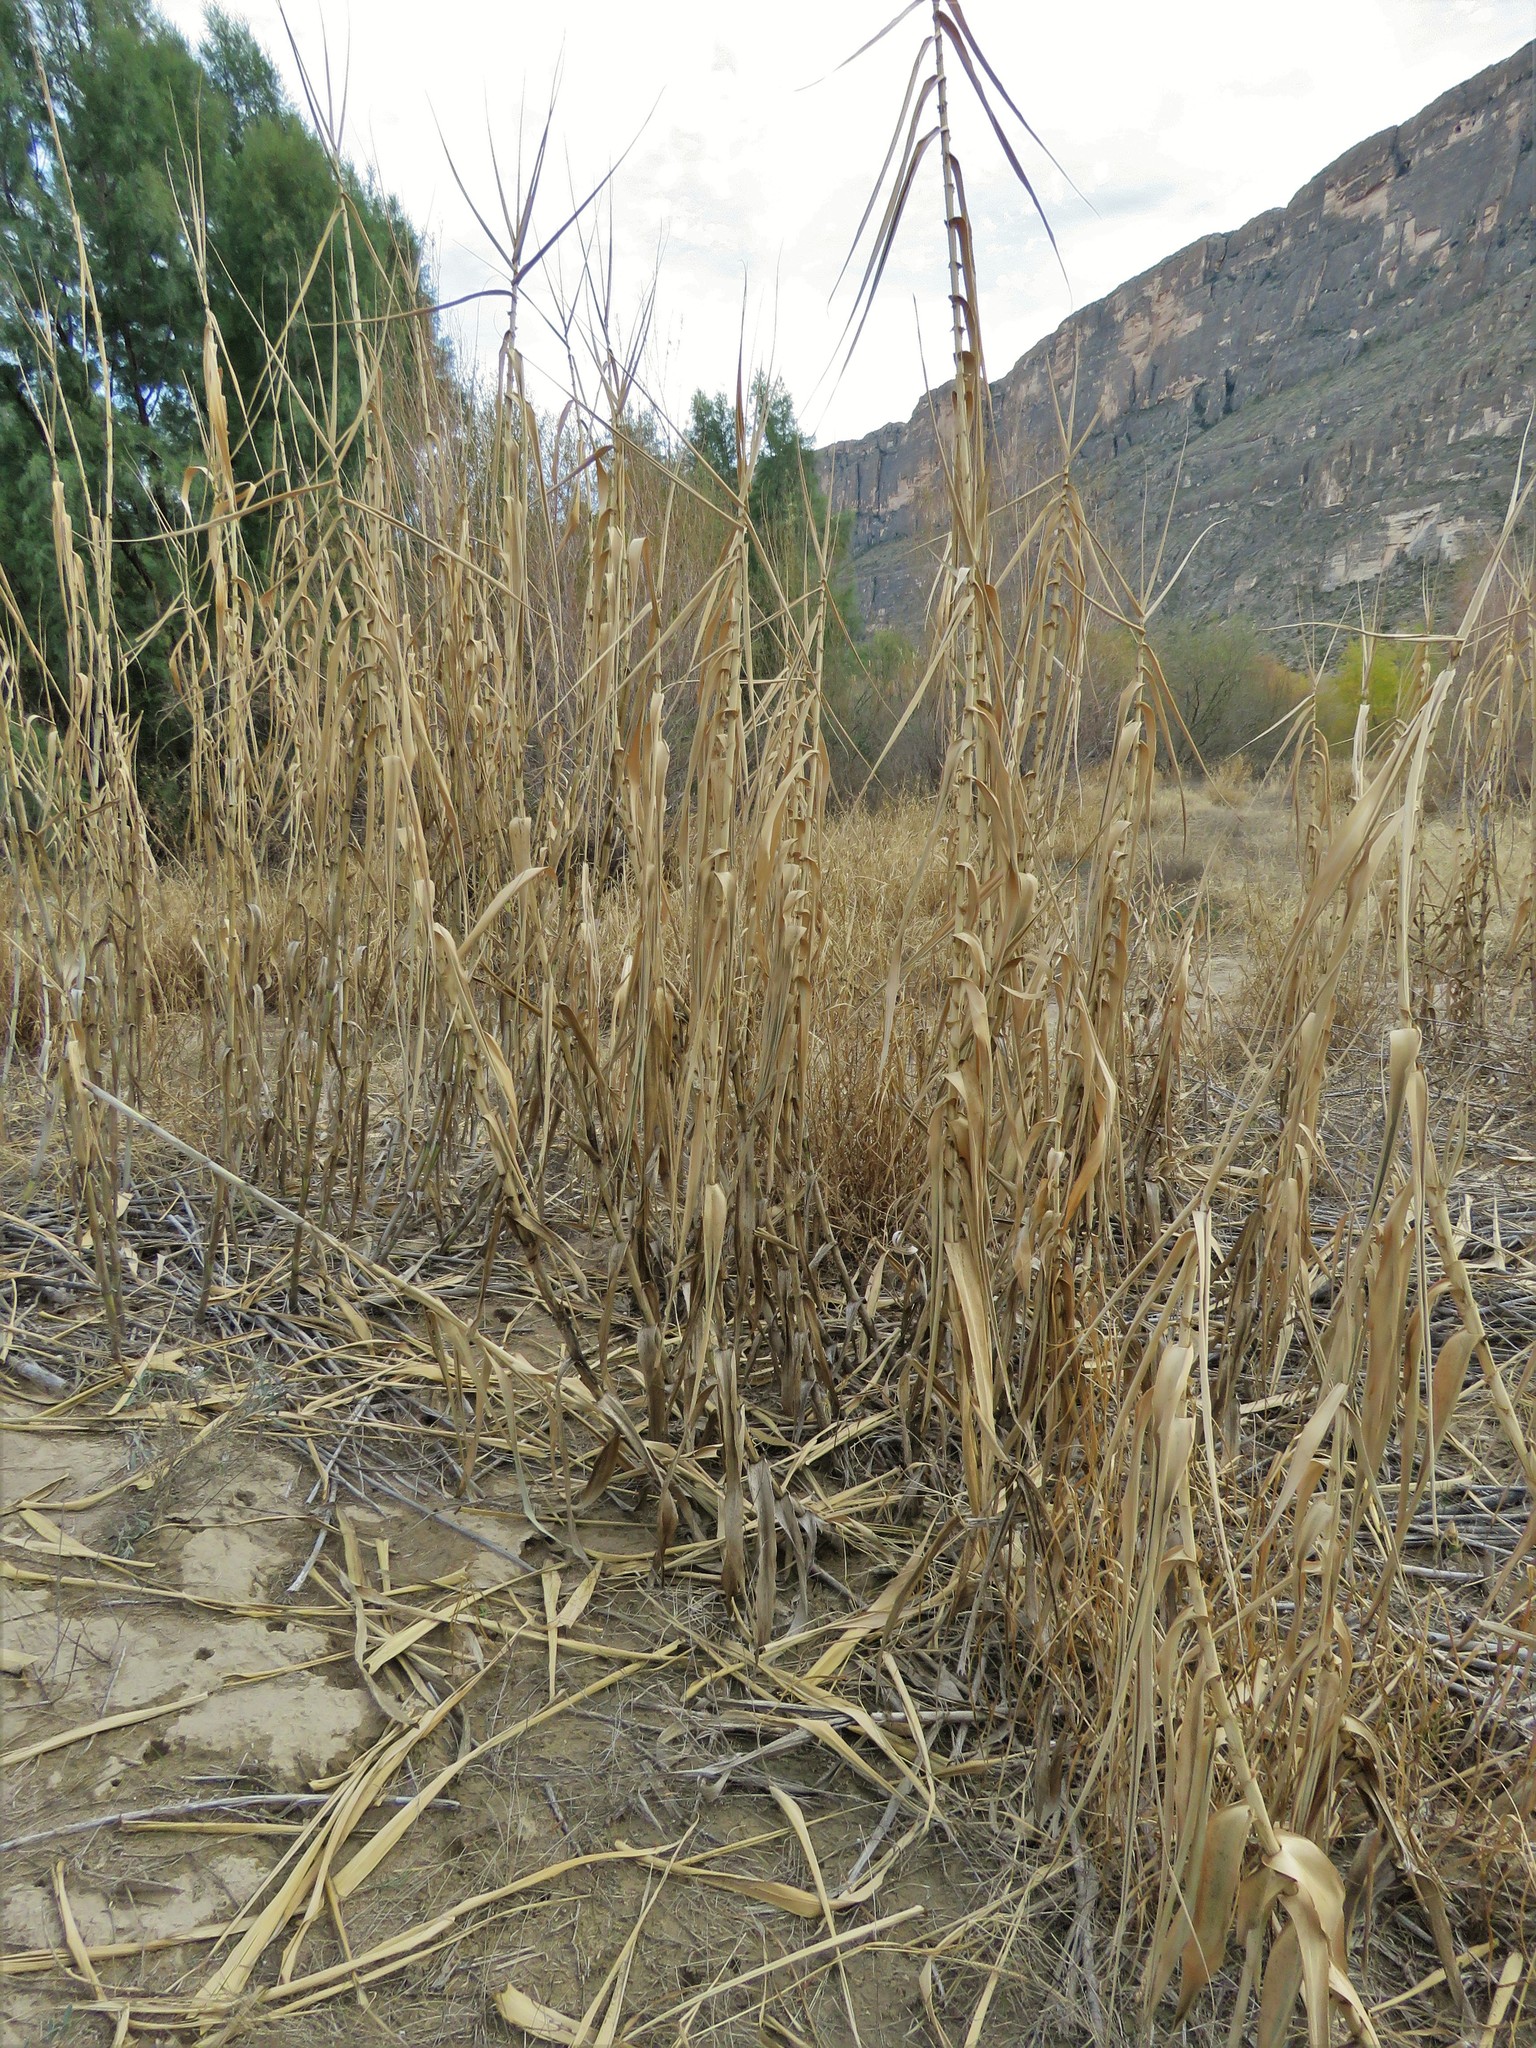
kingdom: Plantae
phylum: Tracheophyta
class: Liliopsida
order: Poales
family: Poaceae
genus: Arundo
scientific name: Arundo donax
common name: Giant reed
